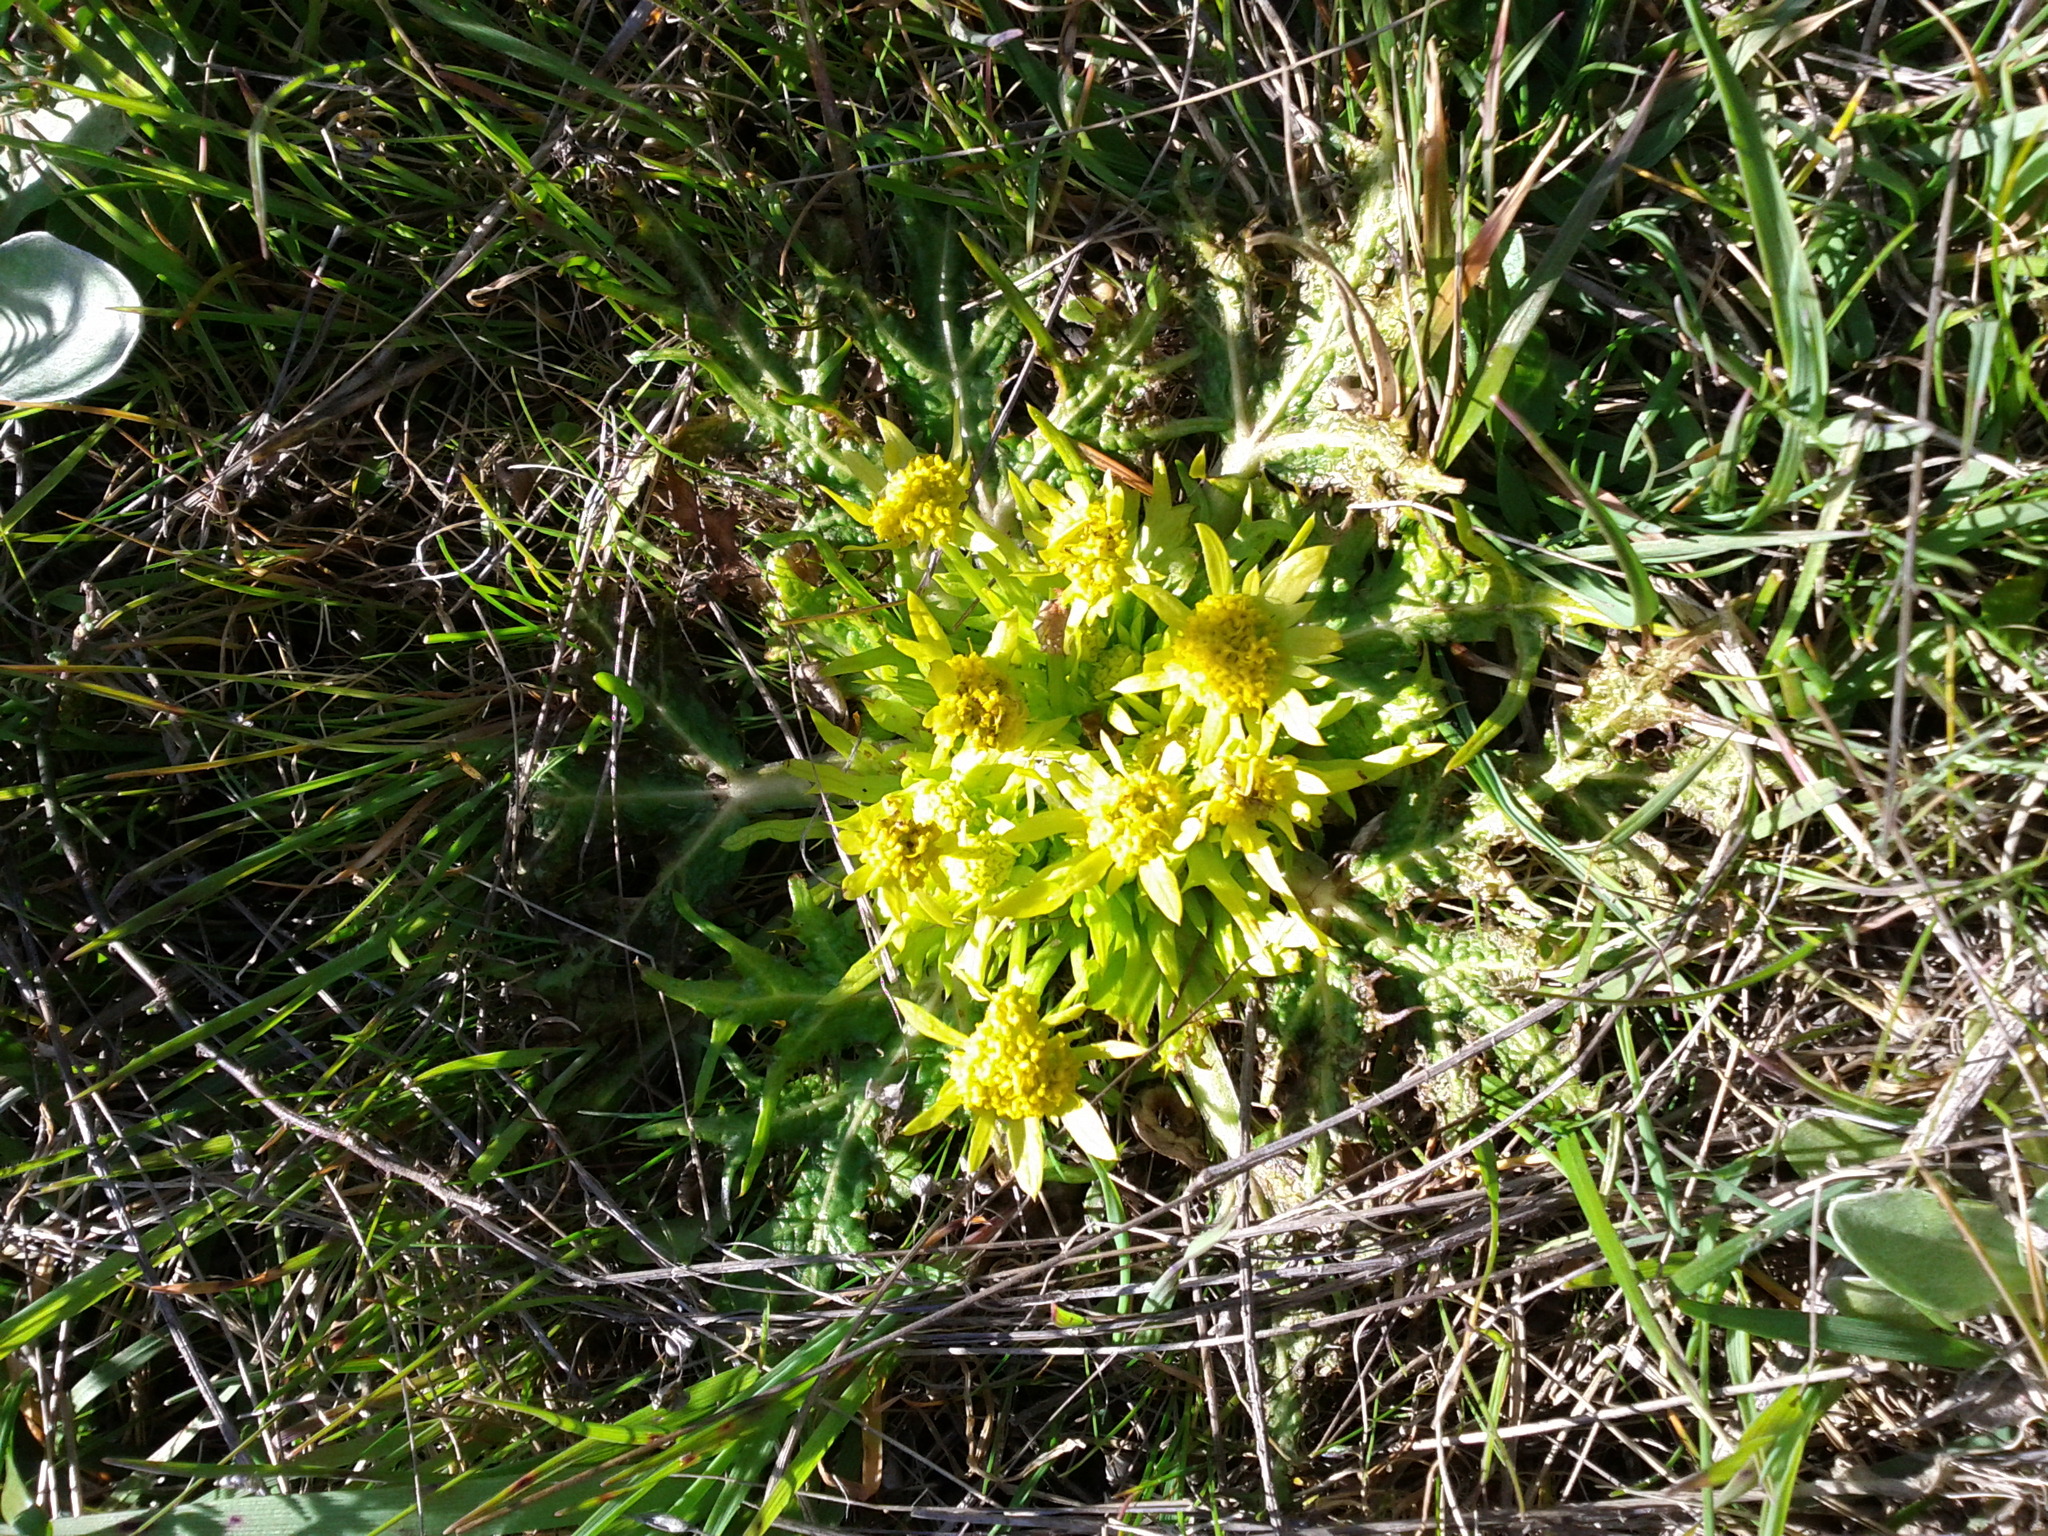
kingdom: Plantae
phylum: Tracheophyta
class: Magnoliopsida
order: Apiales
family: Apiaceae
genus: Sanicula
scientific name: Sanicula arctopoides
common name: Footsteps-of-spring
